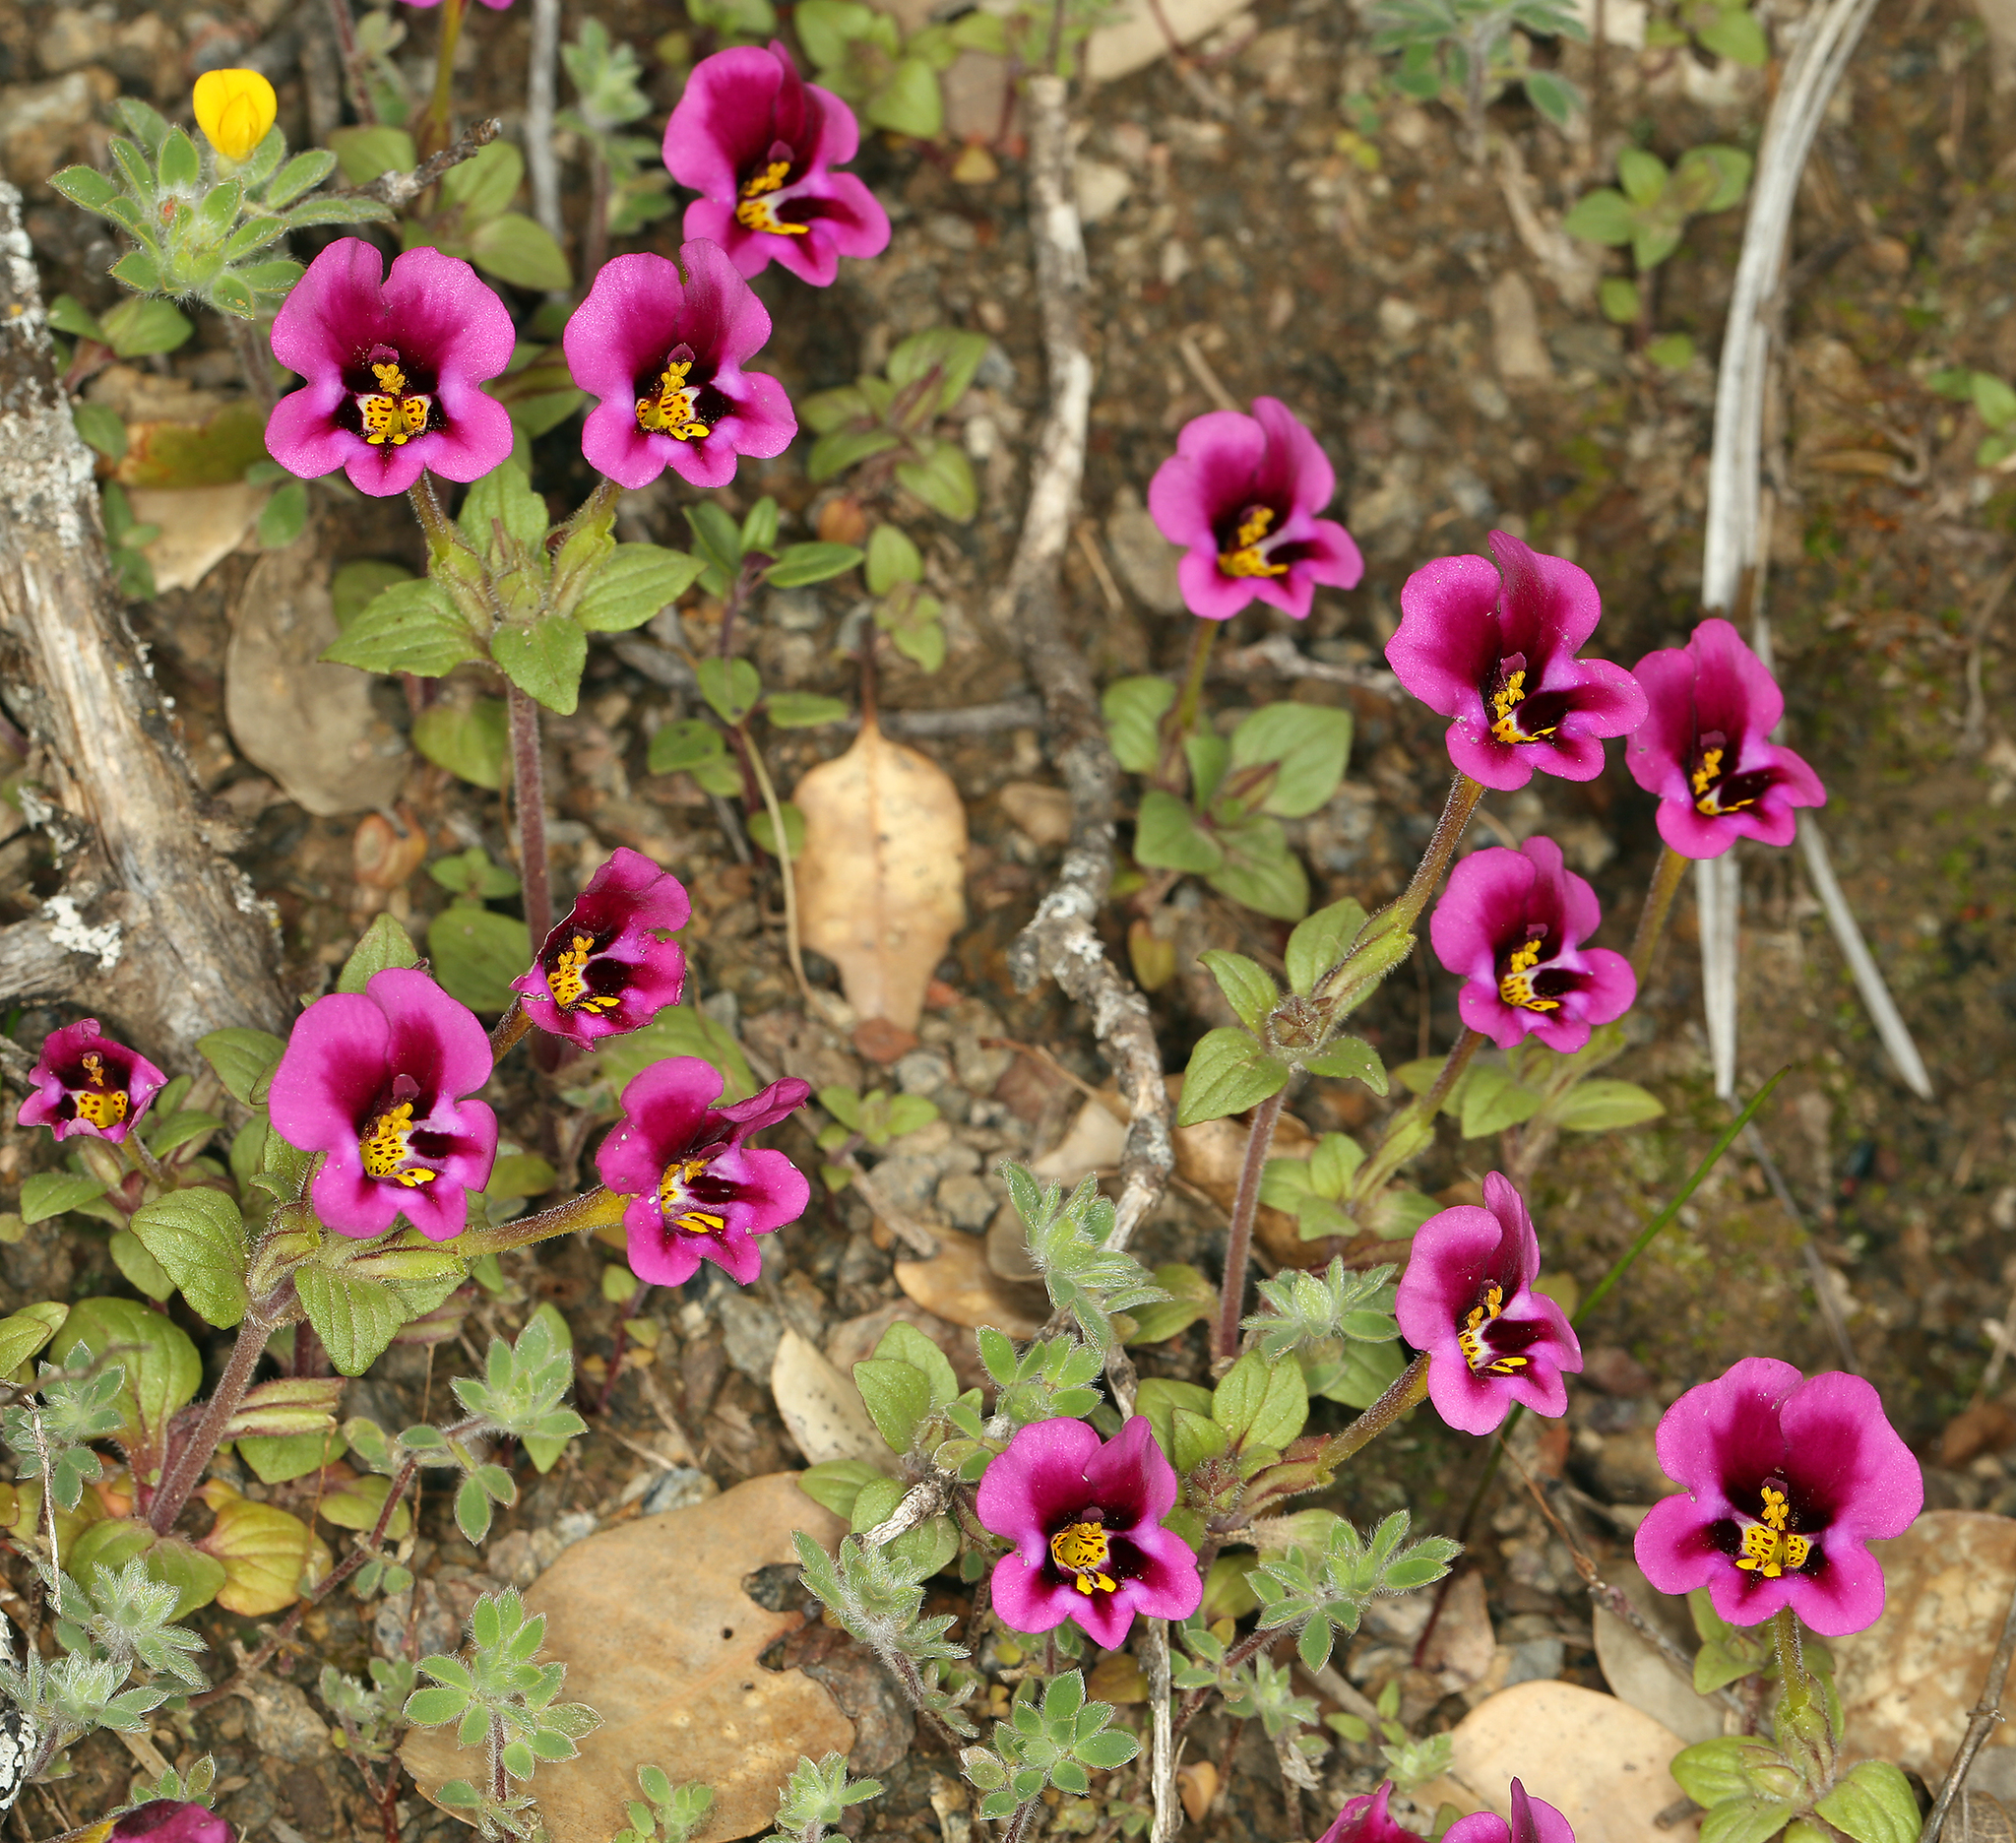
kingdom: Plantae
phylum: Tracheophyta
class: Magnoliopsida
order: Lamiales
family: Phrymaceae
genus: Diplacus
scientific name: Diplacus kelloggii
